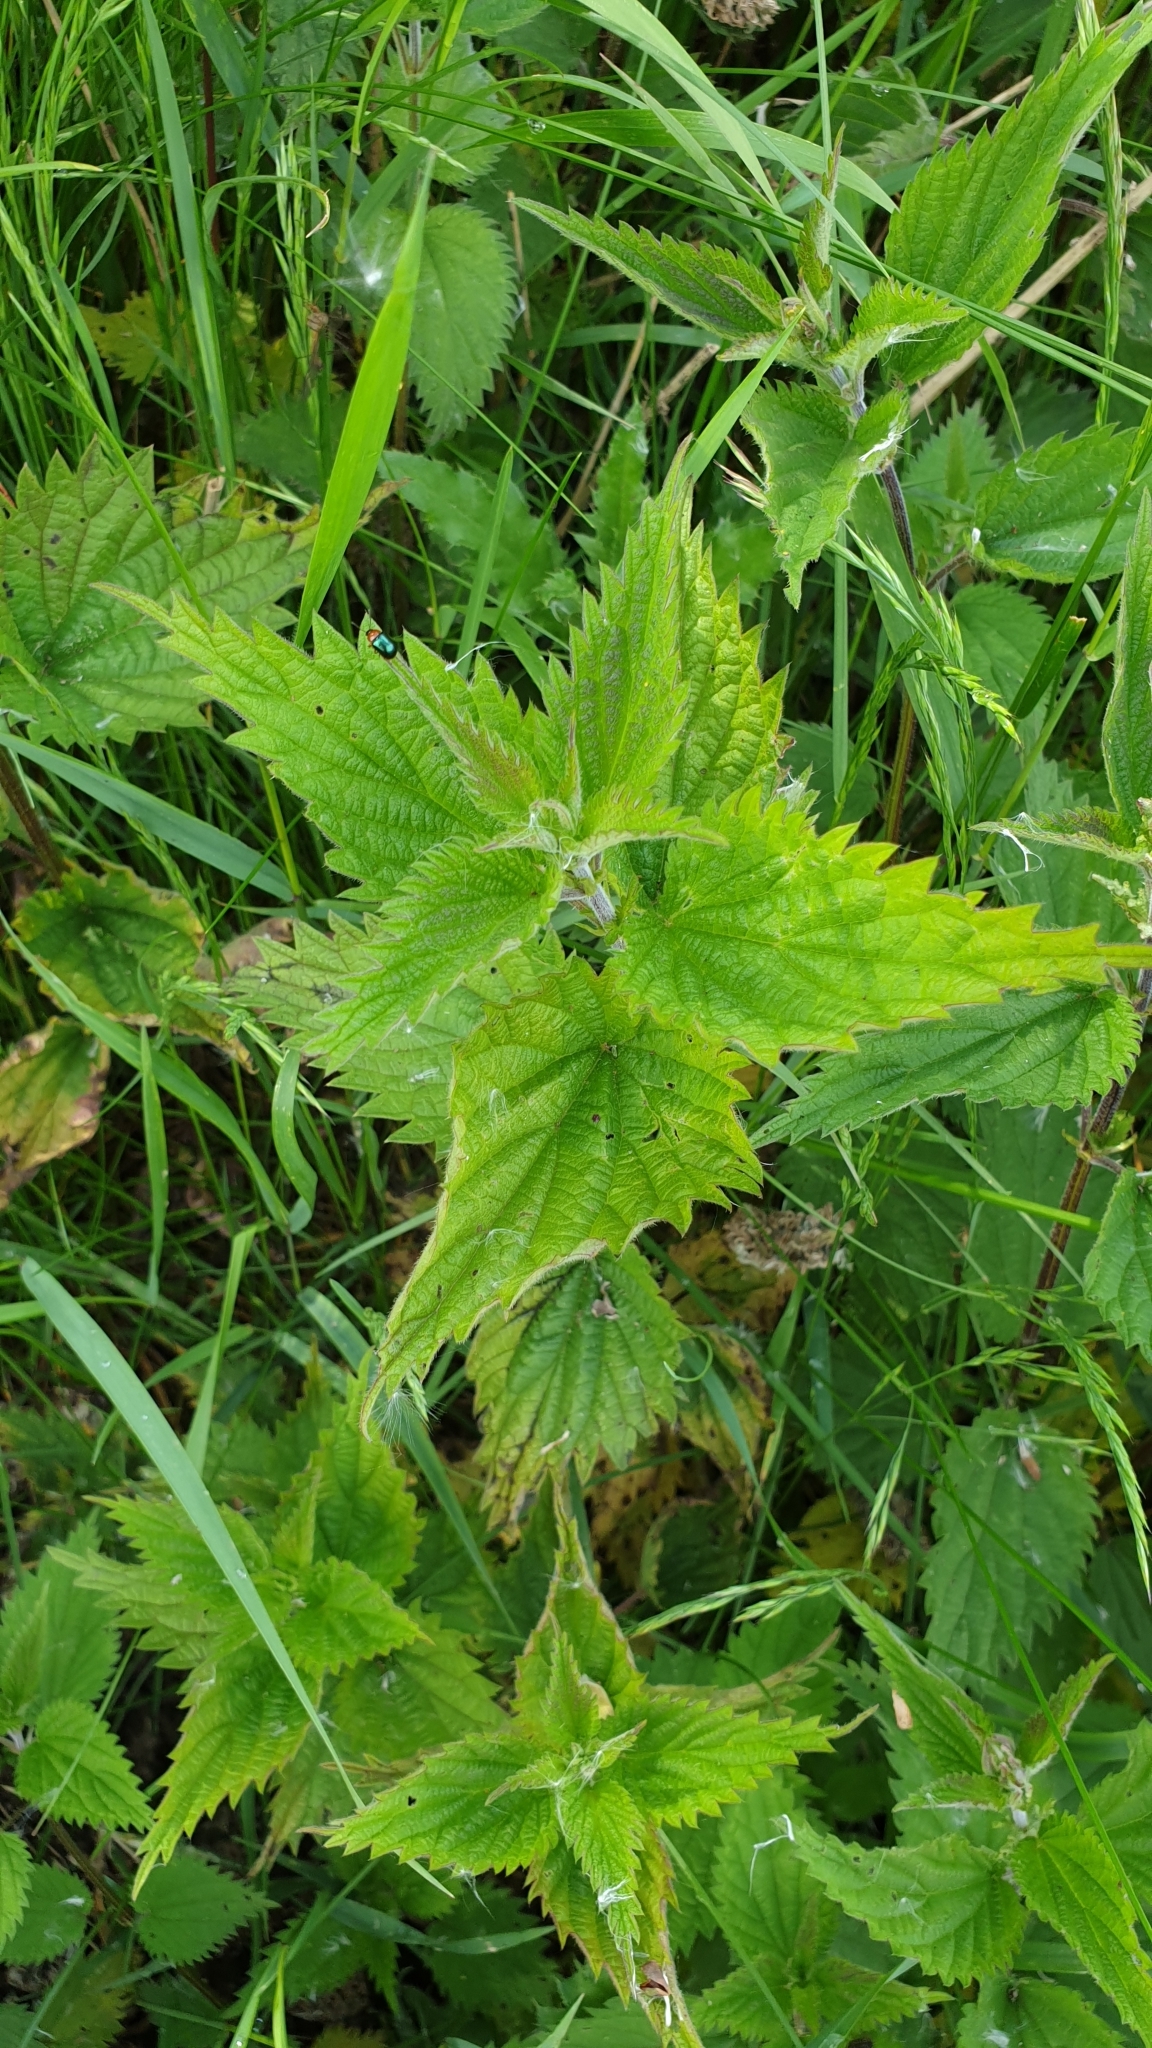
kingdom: Plantae
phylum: Tracheophyta
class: Magnoliopsida
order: Rosales
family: Urticaceae
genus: Urtica
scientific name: Urtica dioica
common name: Common nettle
